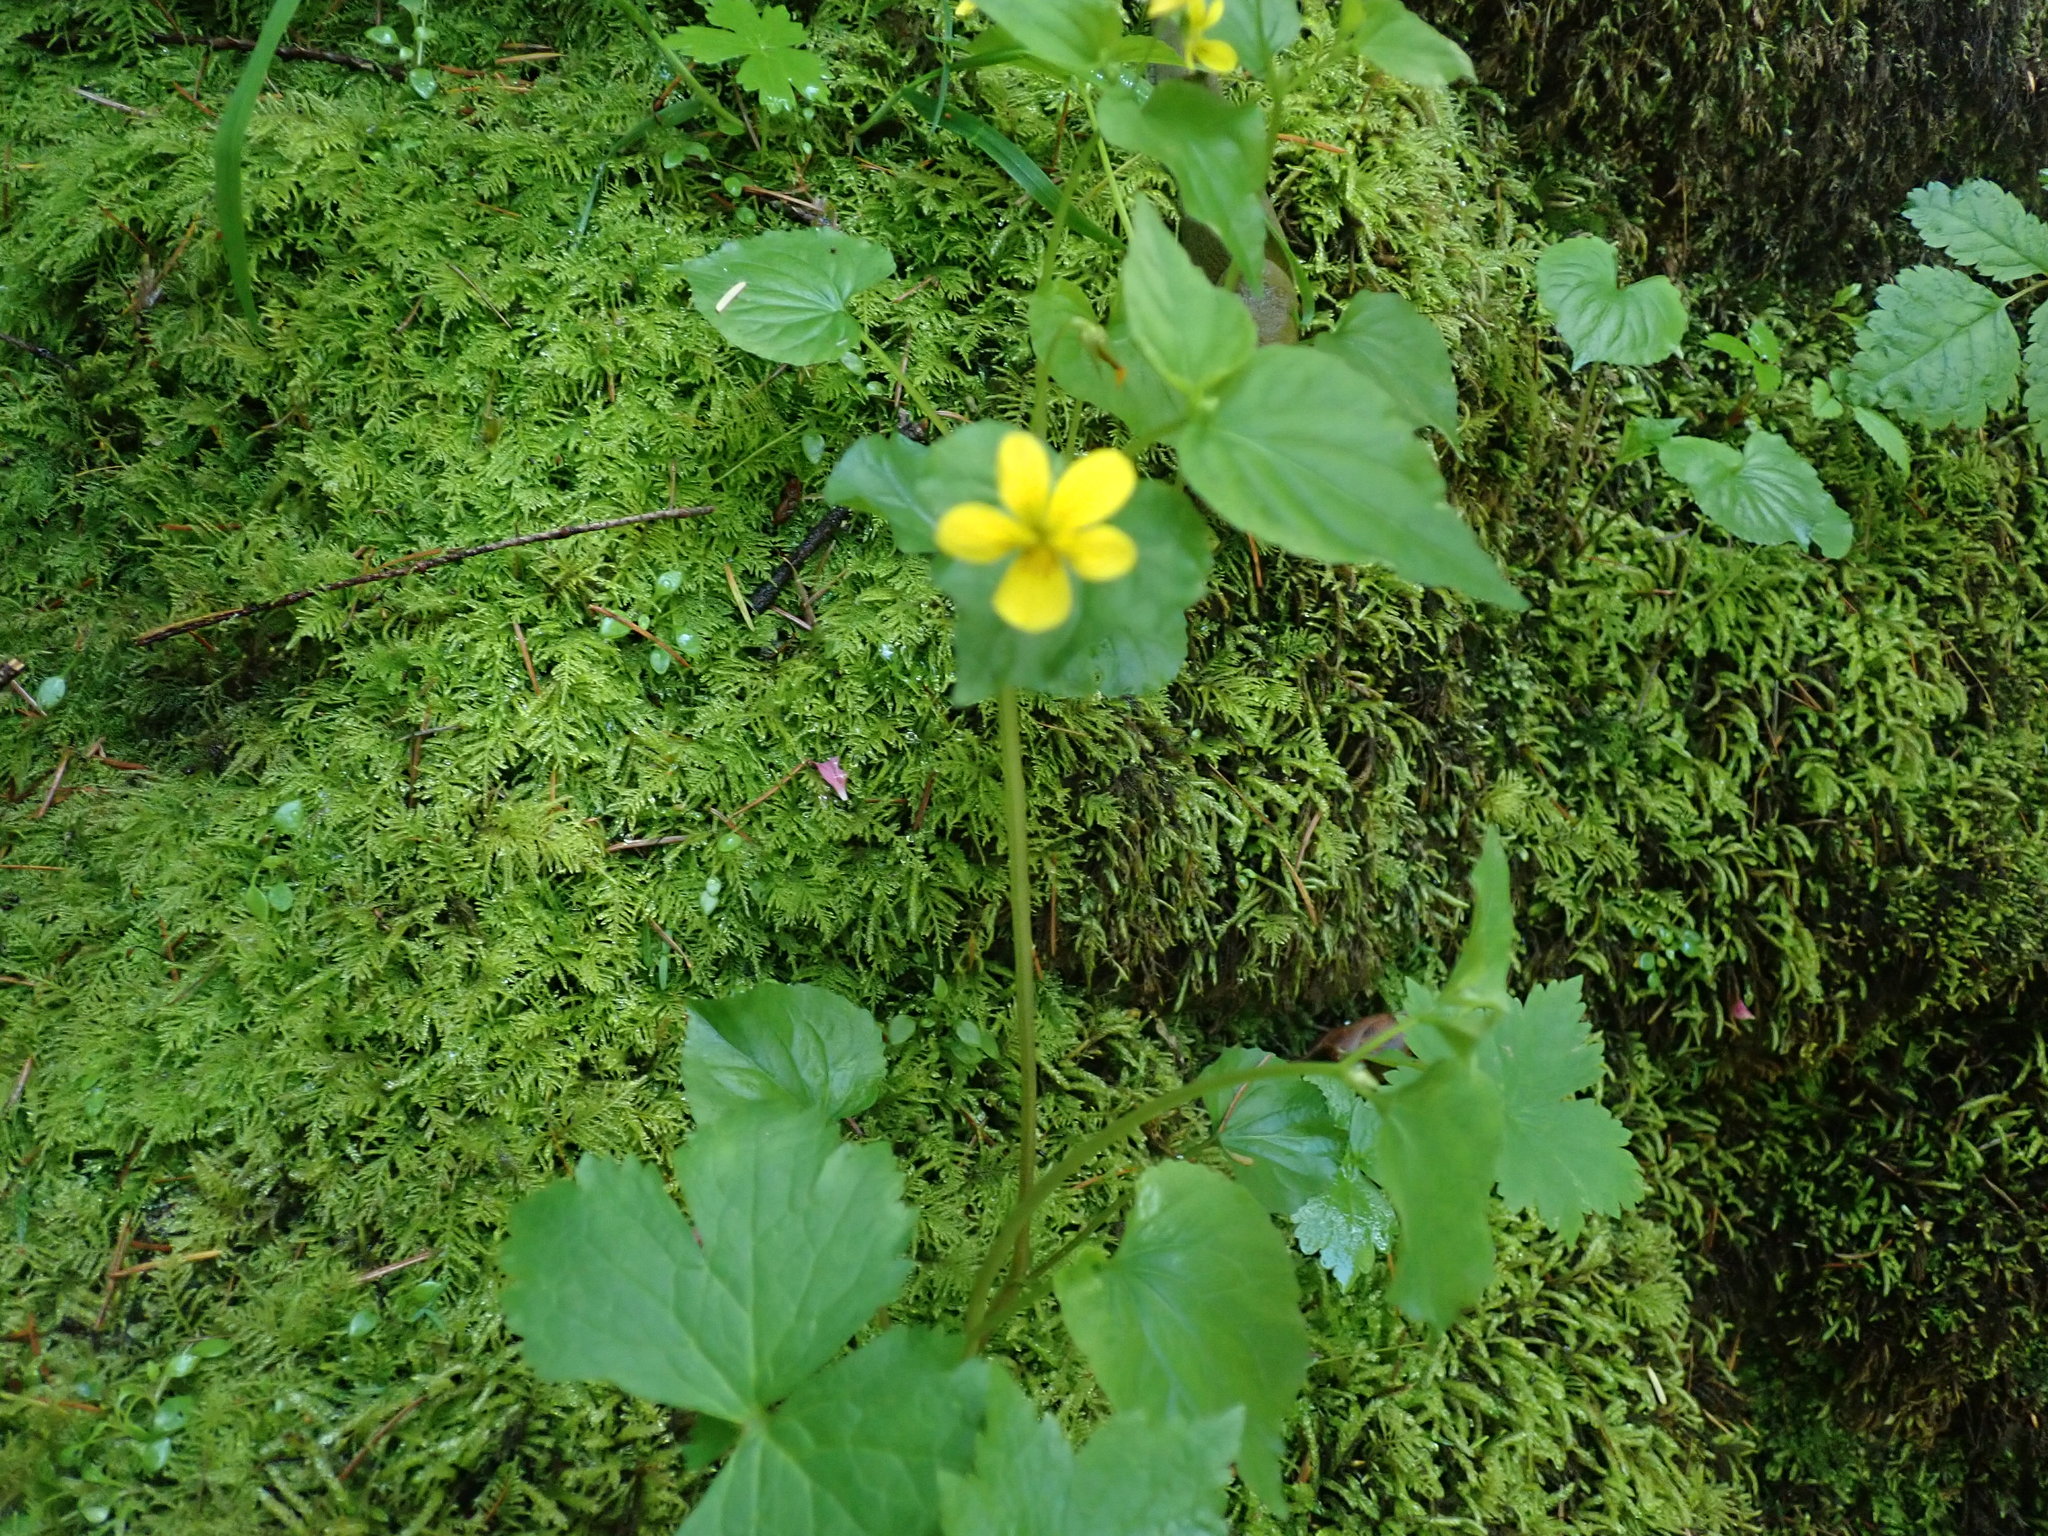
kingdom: Plantae
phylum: Tracheophyta
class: Magnoliopsida
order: Malpighiales
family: Violaceae
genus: Viola
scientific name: Viola glabella
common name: Stream violet
